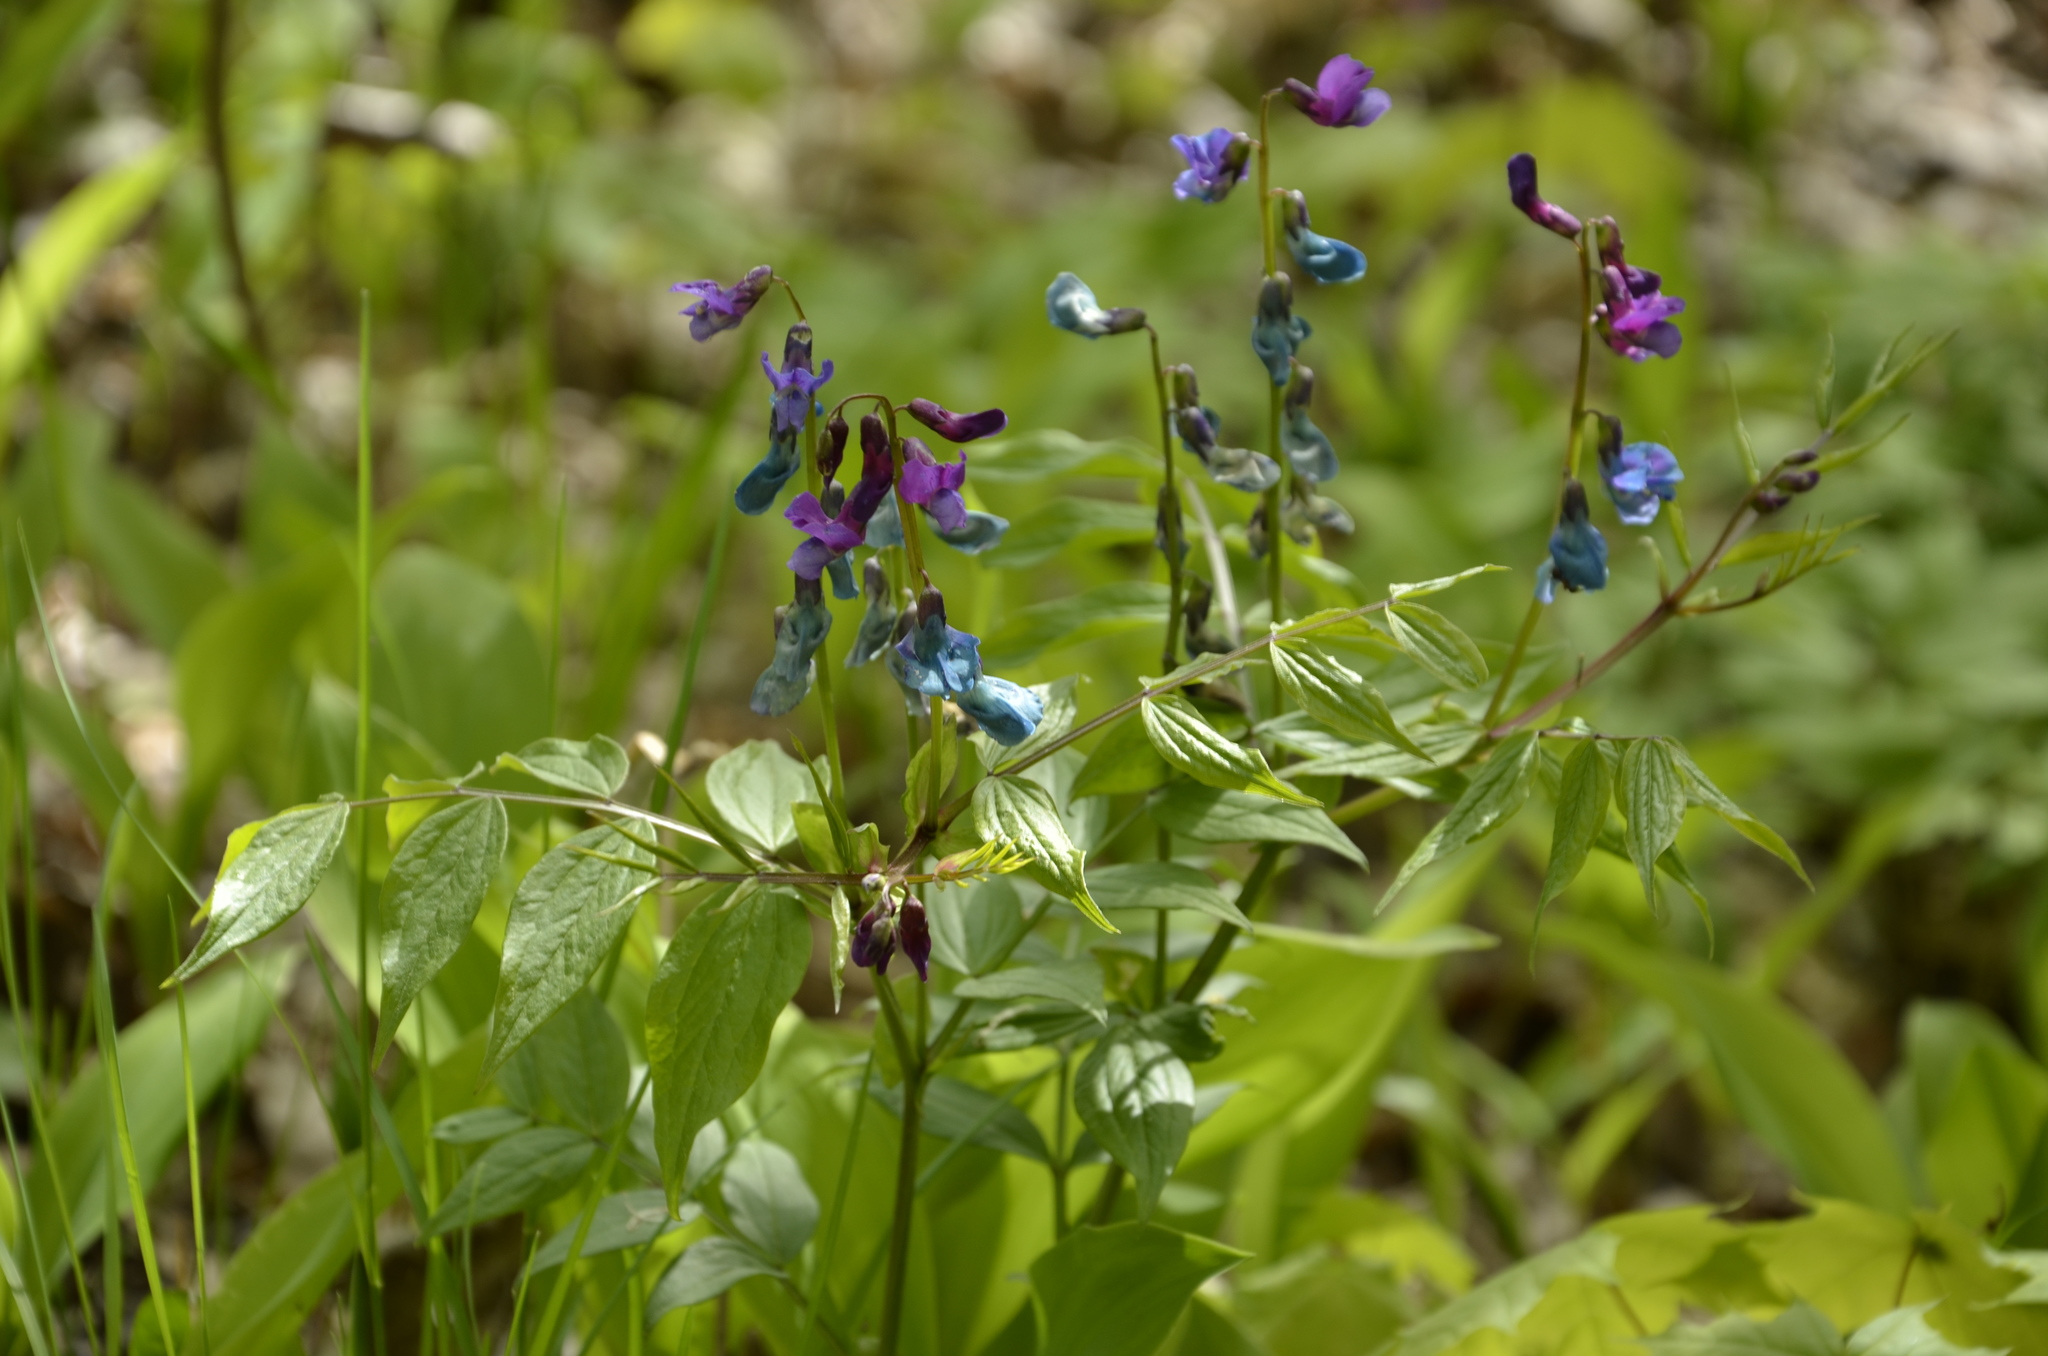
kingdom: Plantae
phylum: Tracheophyta
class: Magnoliopsida
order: Fabales
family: Fabaceae
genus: Lathyrus
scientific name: Lathyrus vernus
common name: Spring pea
